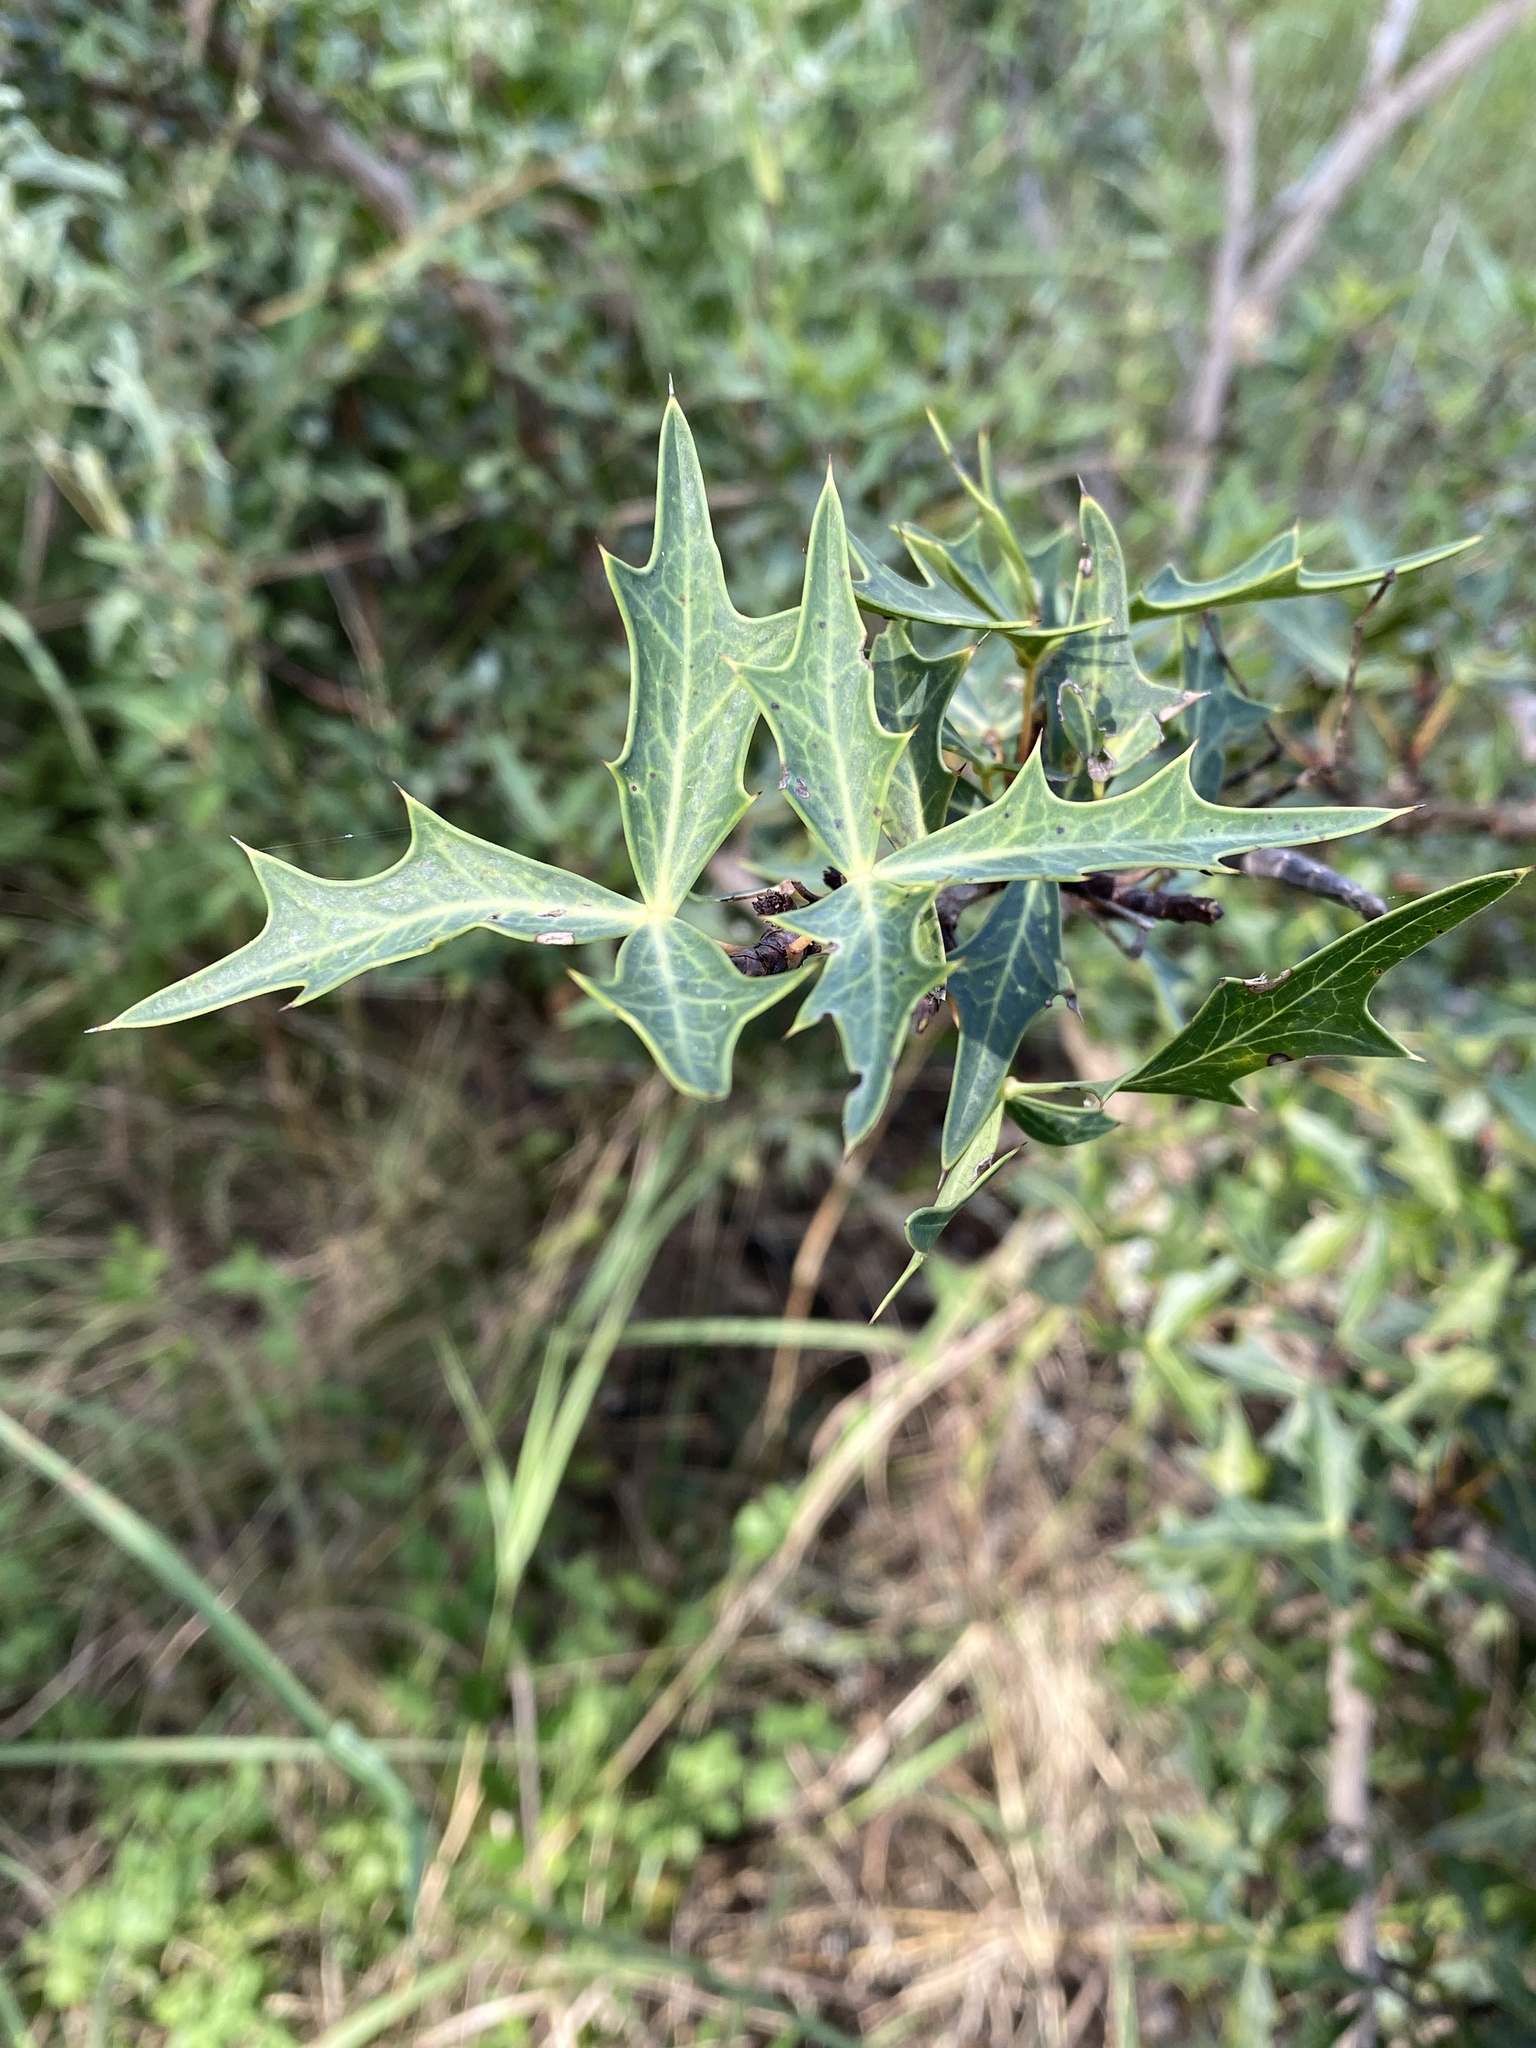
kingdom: Plantae
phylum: Tracheophyta
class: Magnoliopsida
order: Ranunculales
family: Berberidaceae
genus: Alloberberis
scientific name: Alloberberis trifoliolata
